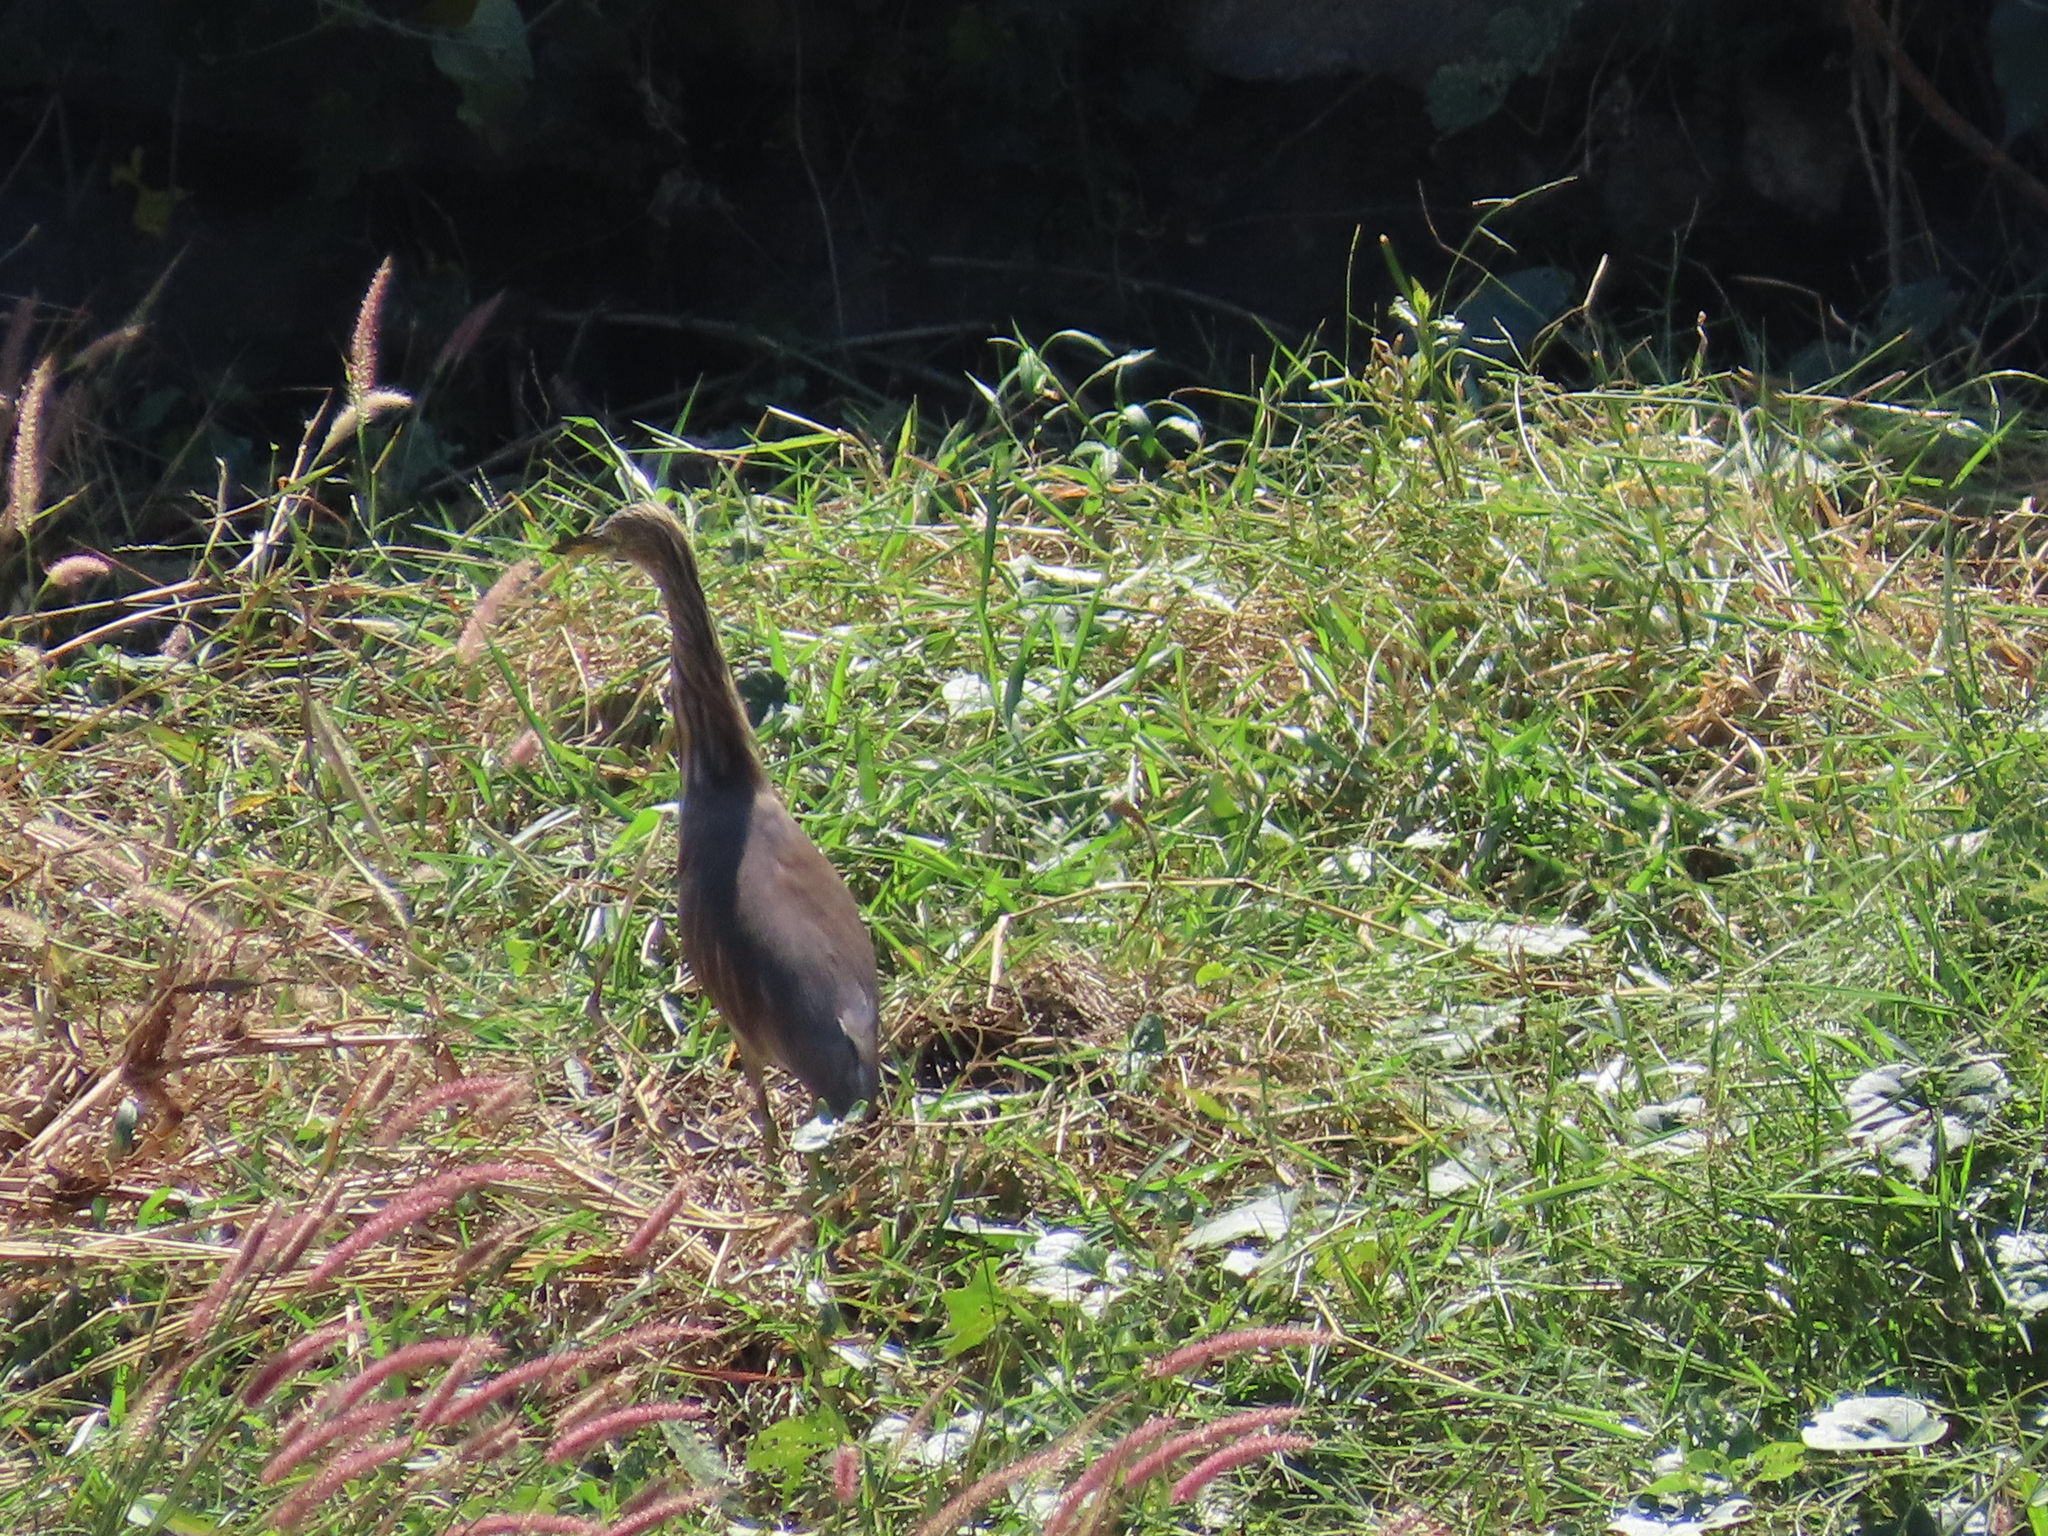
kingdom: Animalia
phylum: Chordata
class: Aves
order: Pelecaniformes
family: Ardeidae
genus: Ardeola
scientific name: Ardeola grayii
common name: Indian pond heron
